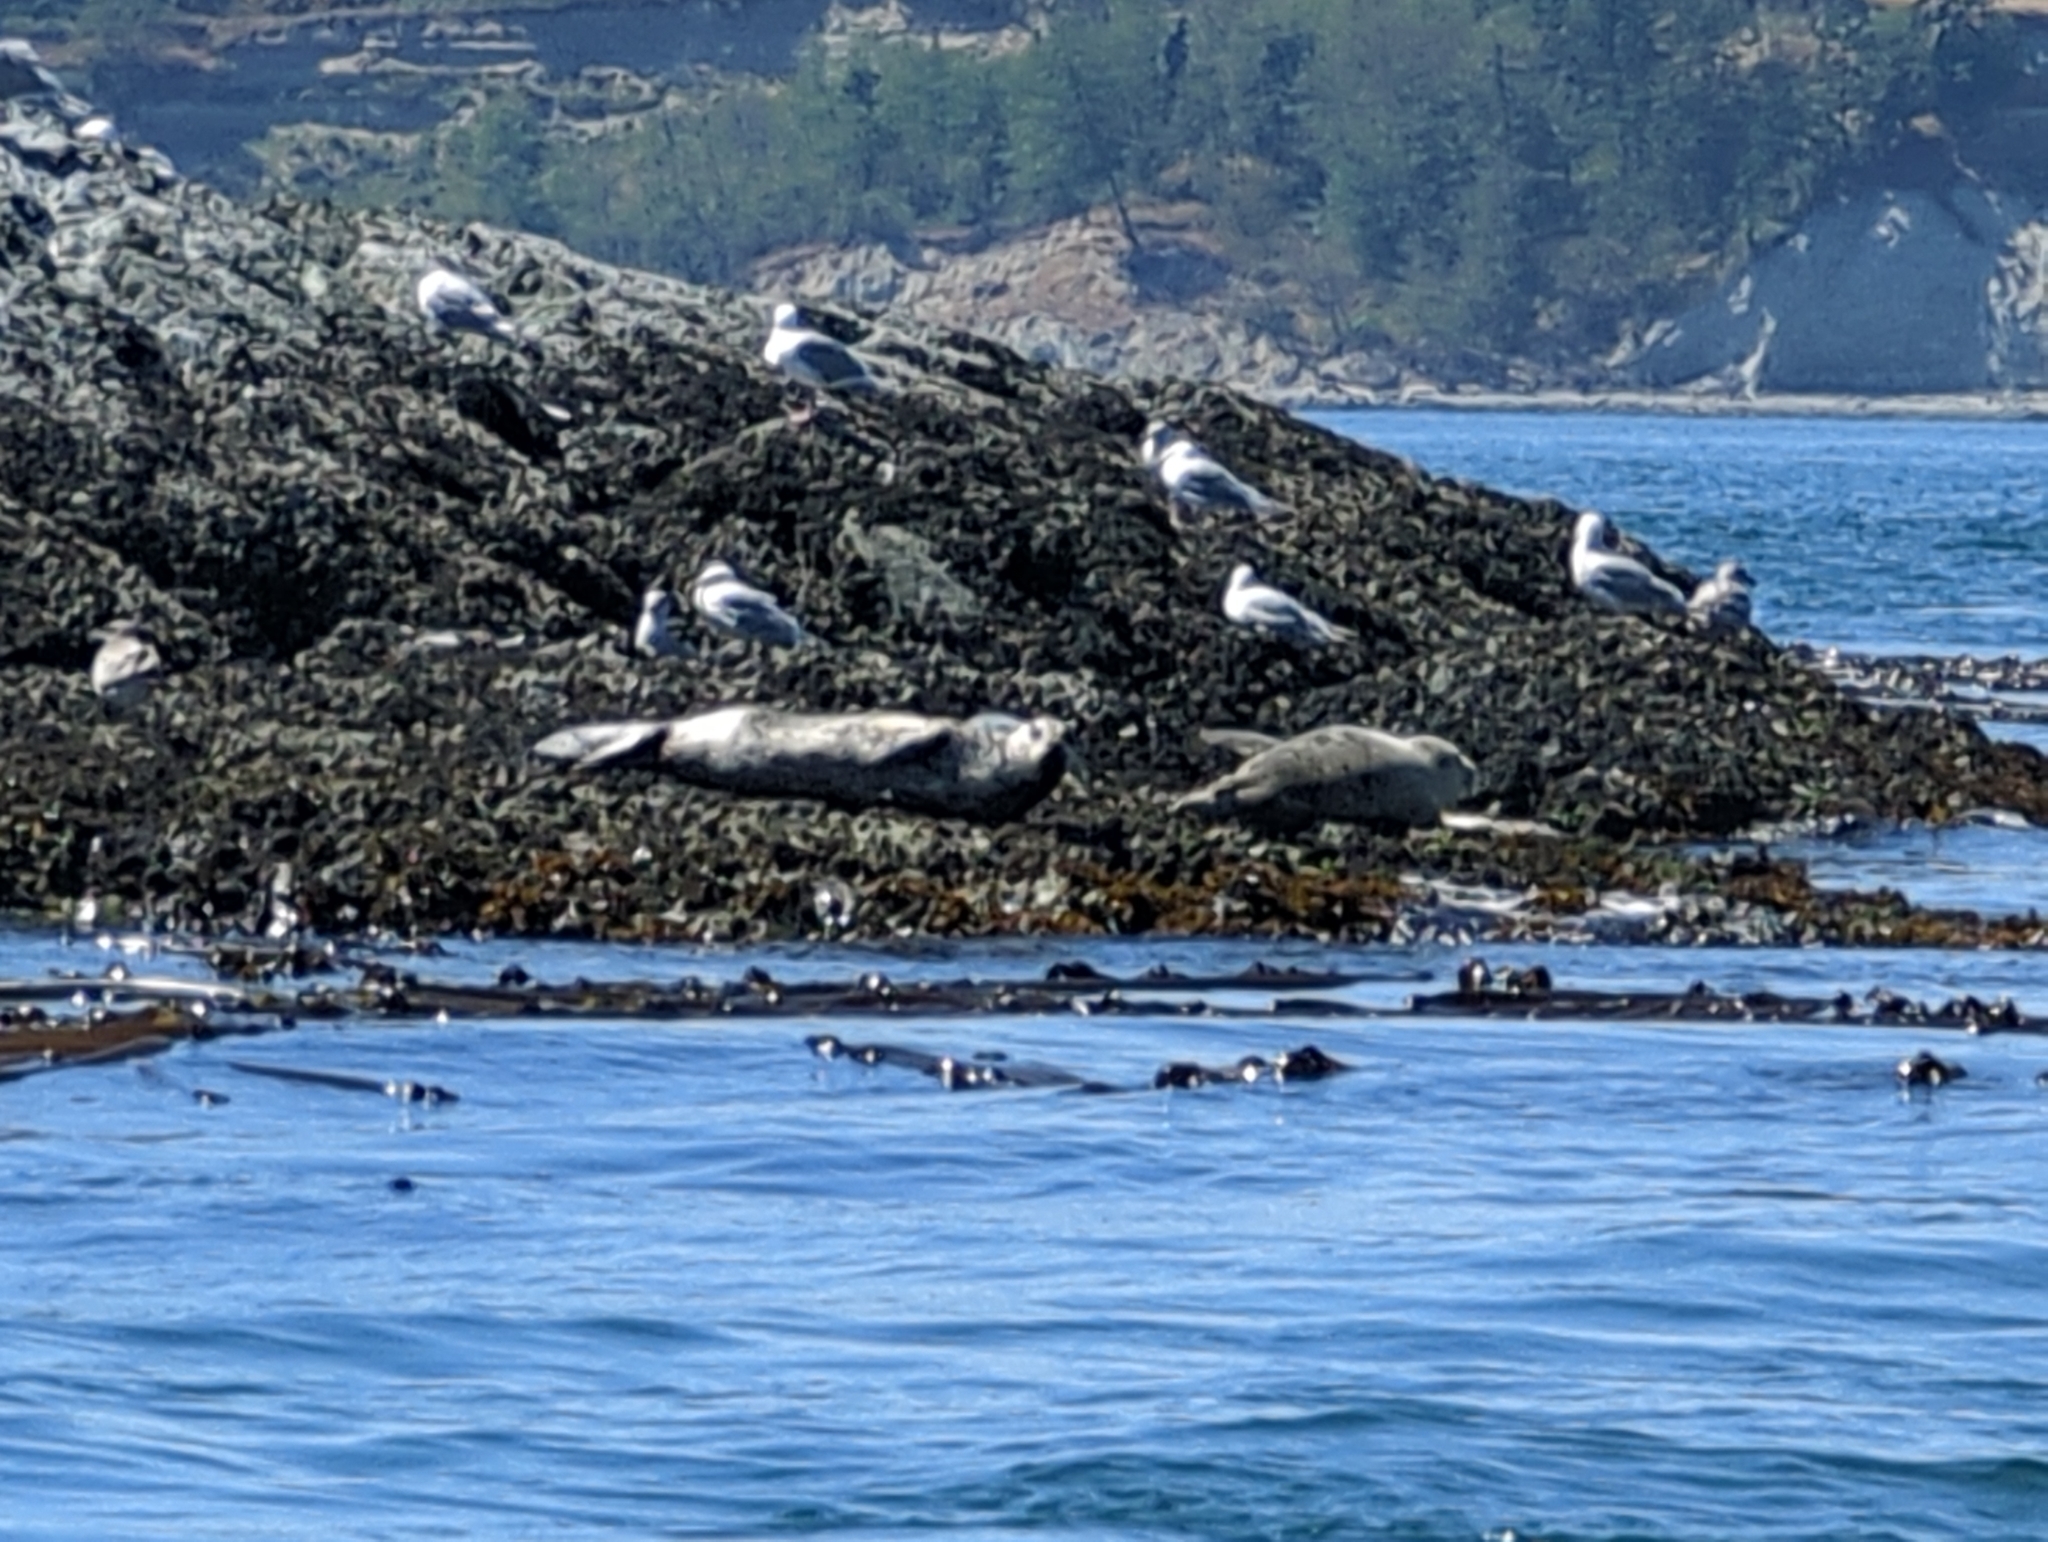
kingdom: Animalia
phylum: Chordata
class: Mammalia
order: Carnivora
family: Phocidae
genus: Phoca
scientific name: Phoca vitulina
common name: Harbor seal
